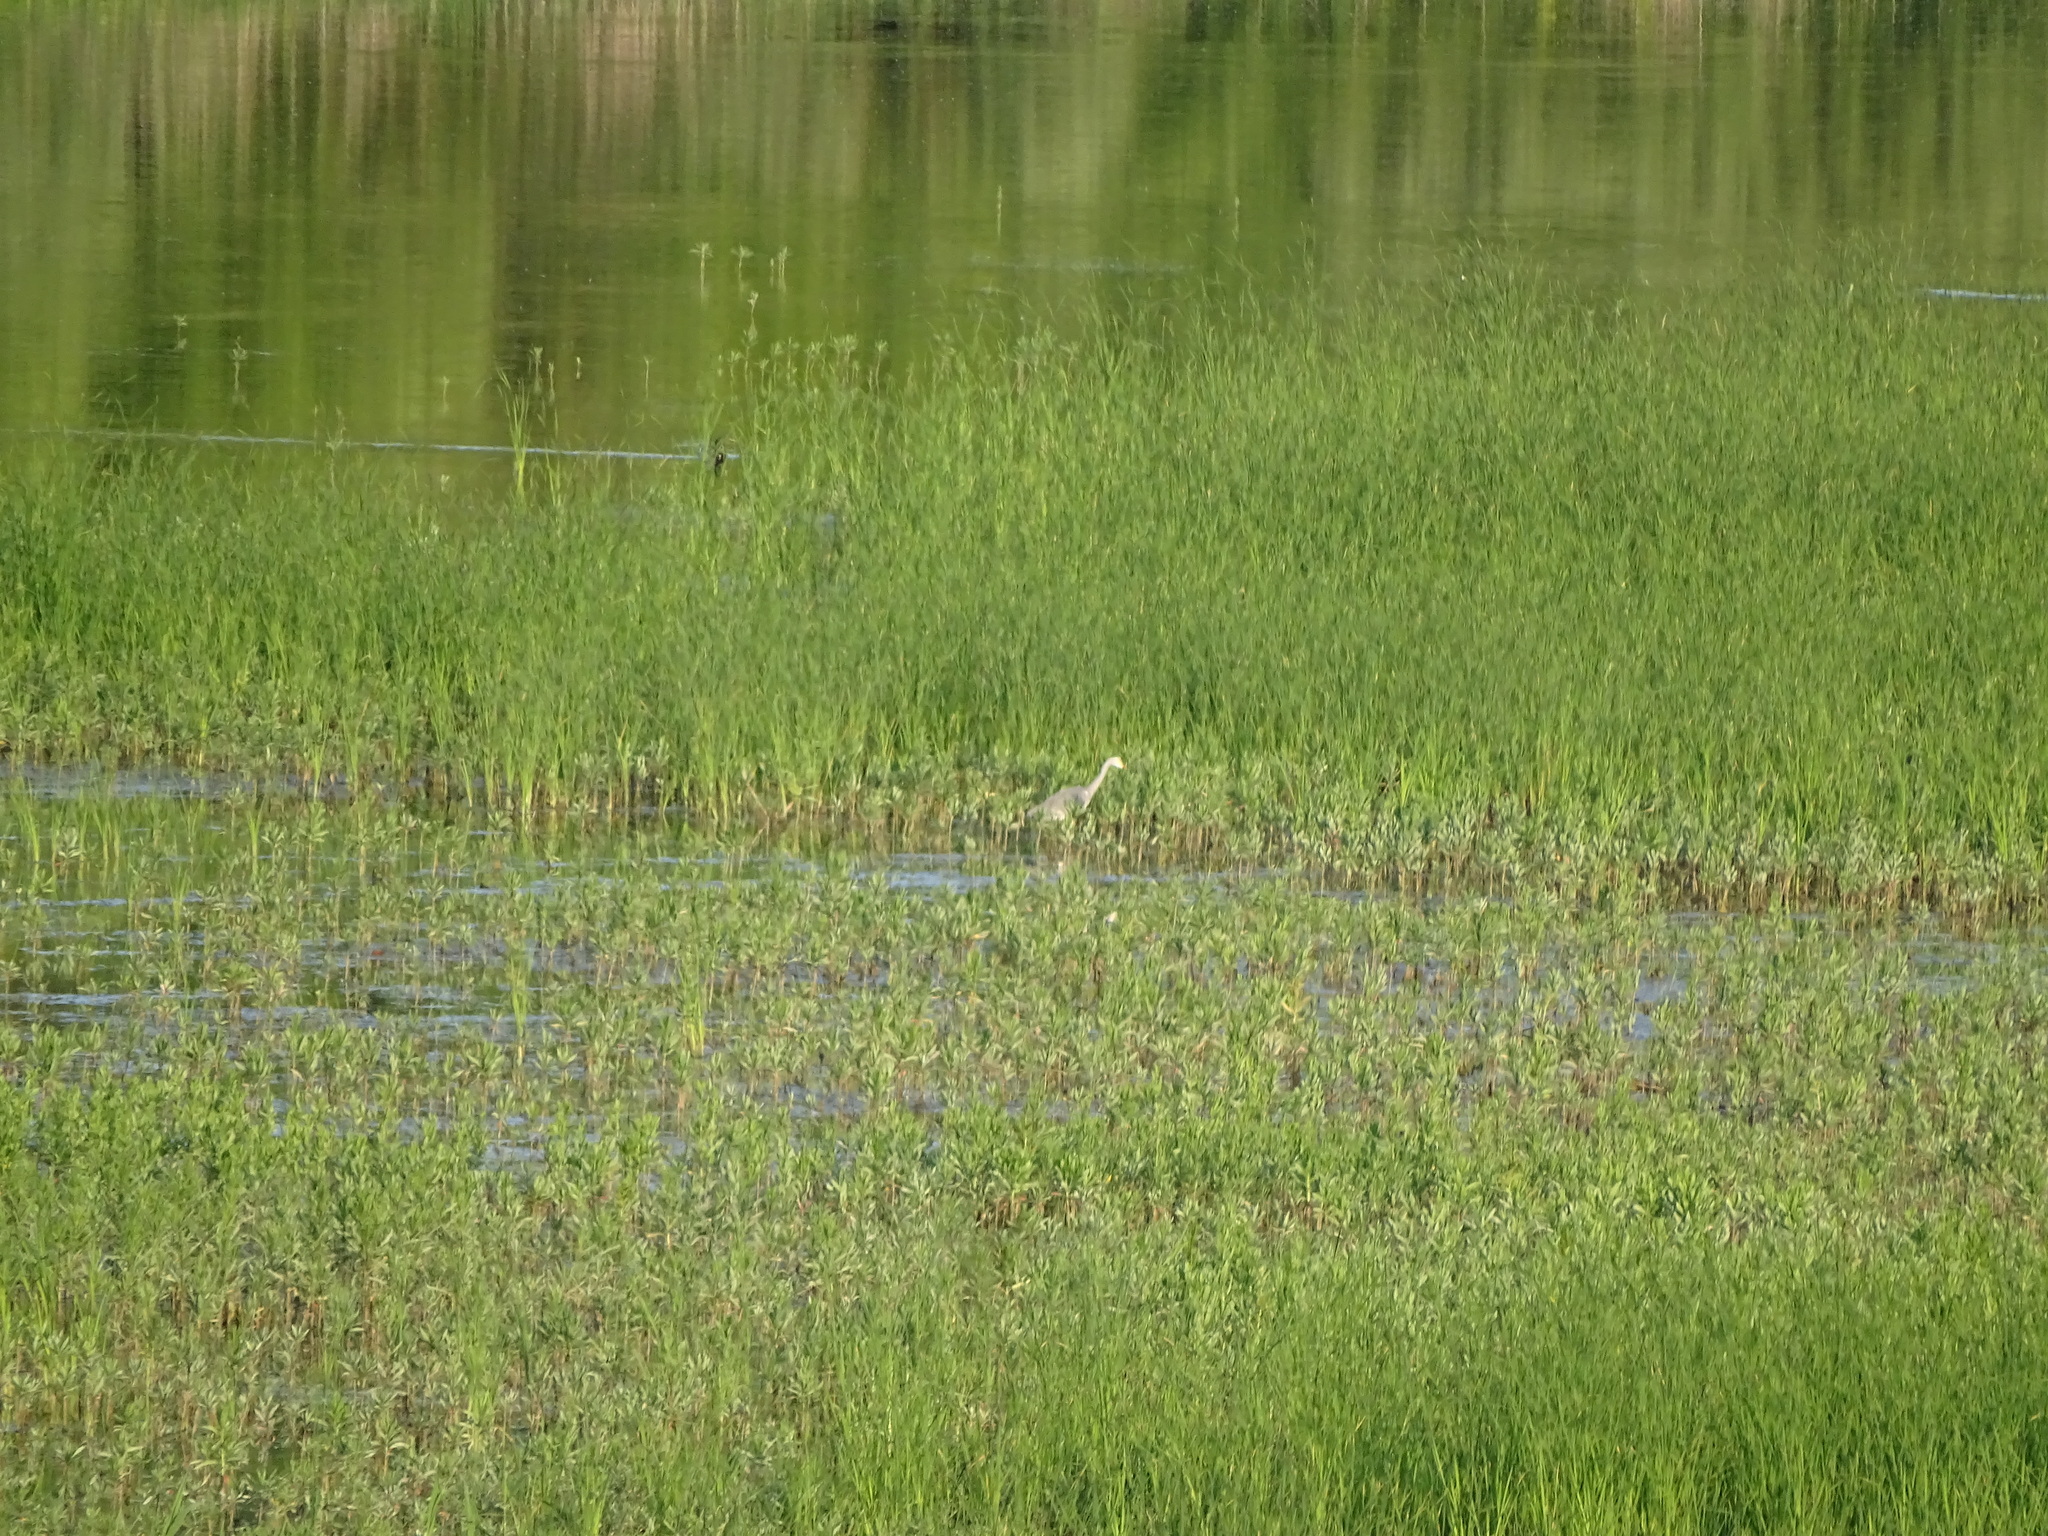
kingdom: Animalia
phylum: Chordata
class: Aves
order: Pelecaniformes
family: Ardeidae
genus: Ardea
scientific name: Ardea cinerea
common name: Grey heron
